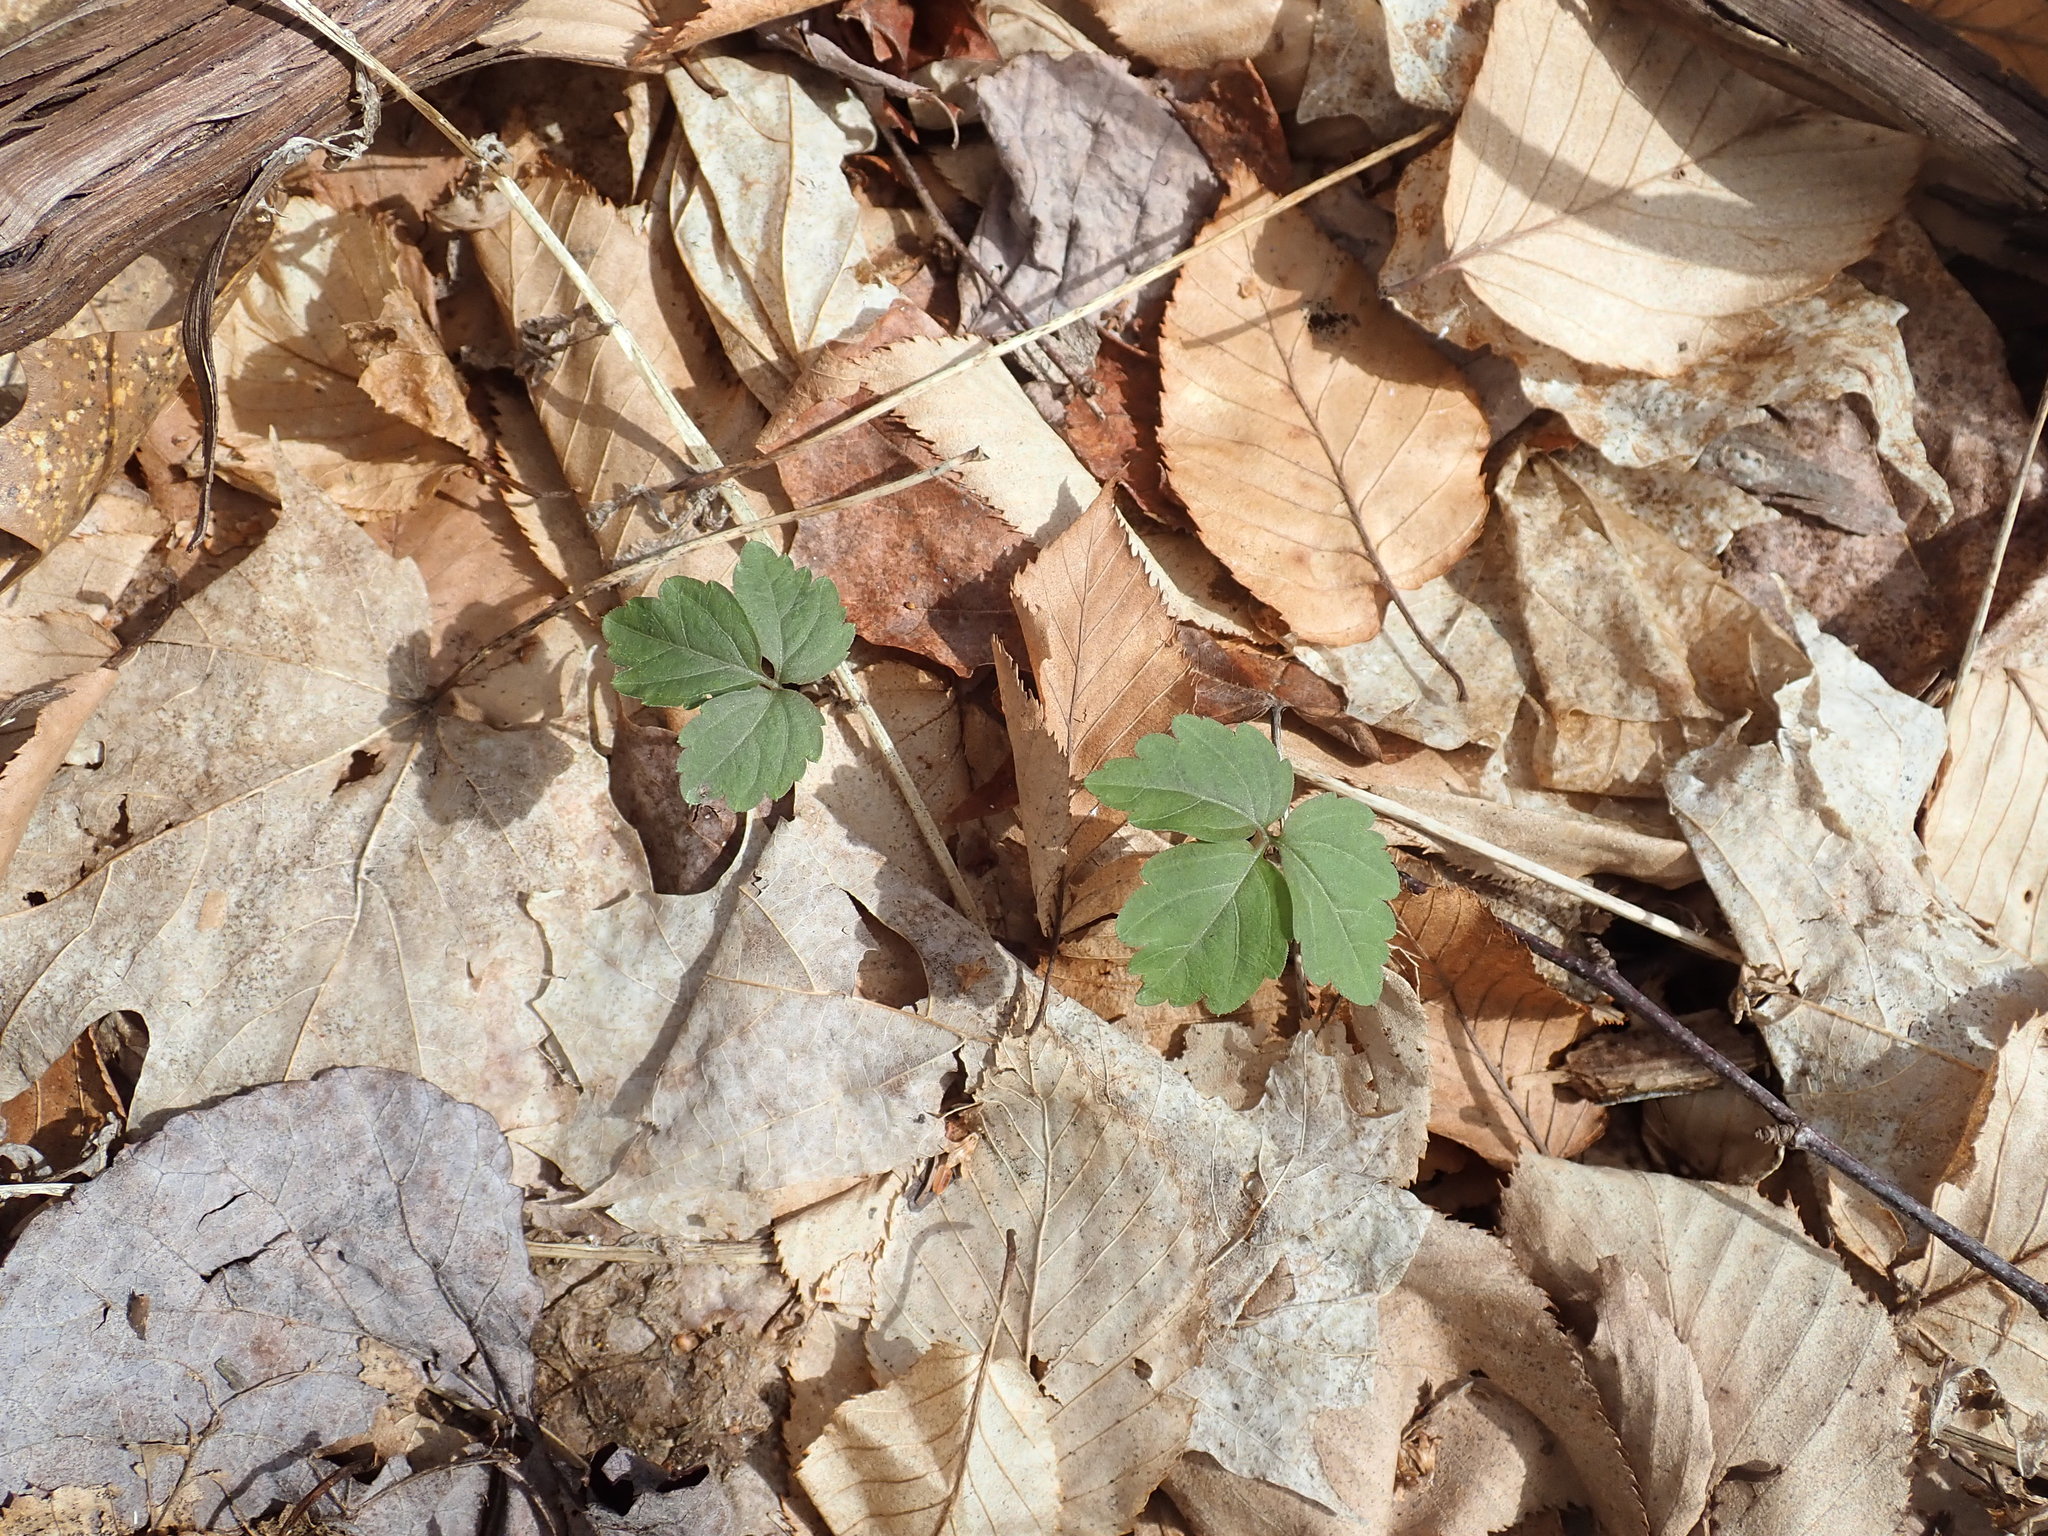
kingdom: Plantae
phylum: Tracheophyta
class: Magnoliopsida
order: Brassicales
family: Brassicaceae
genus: Cardamine
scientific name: Cardamine diphylla
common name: Broad-leaved toothwort
